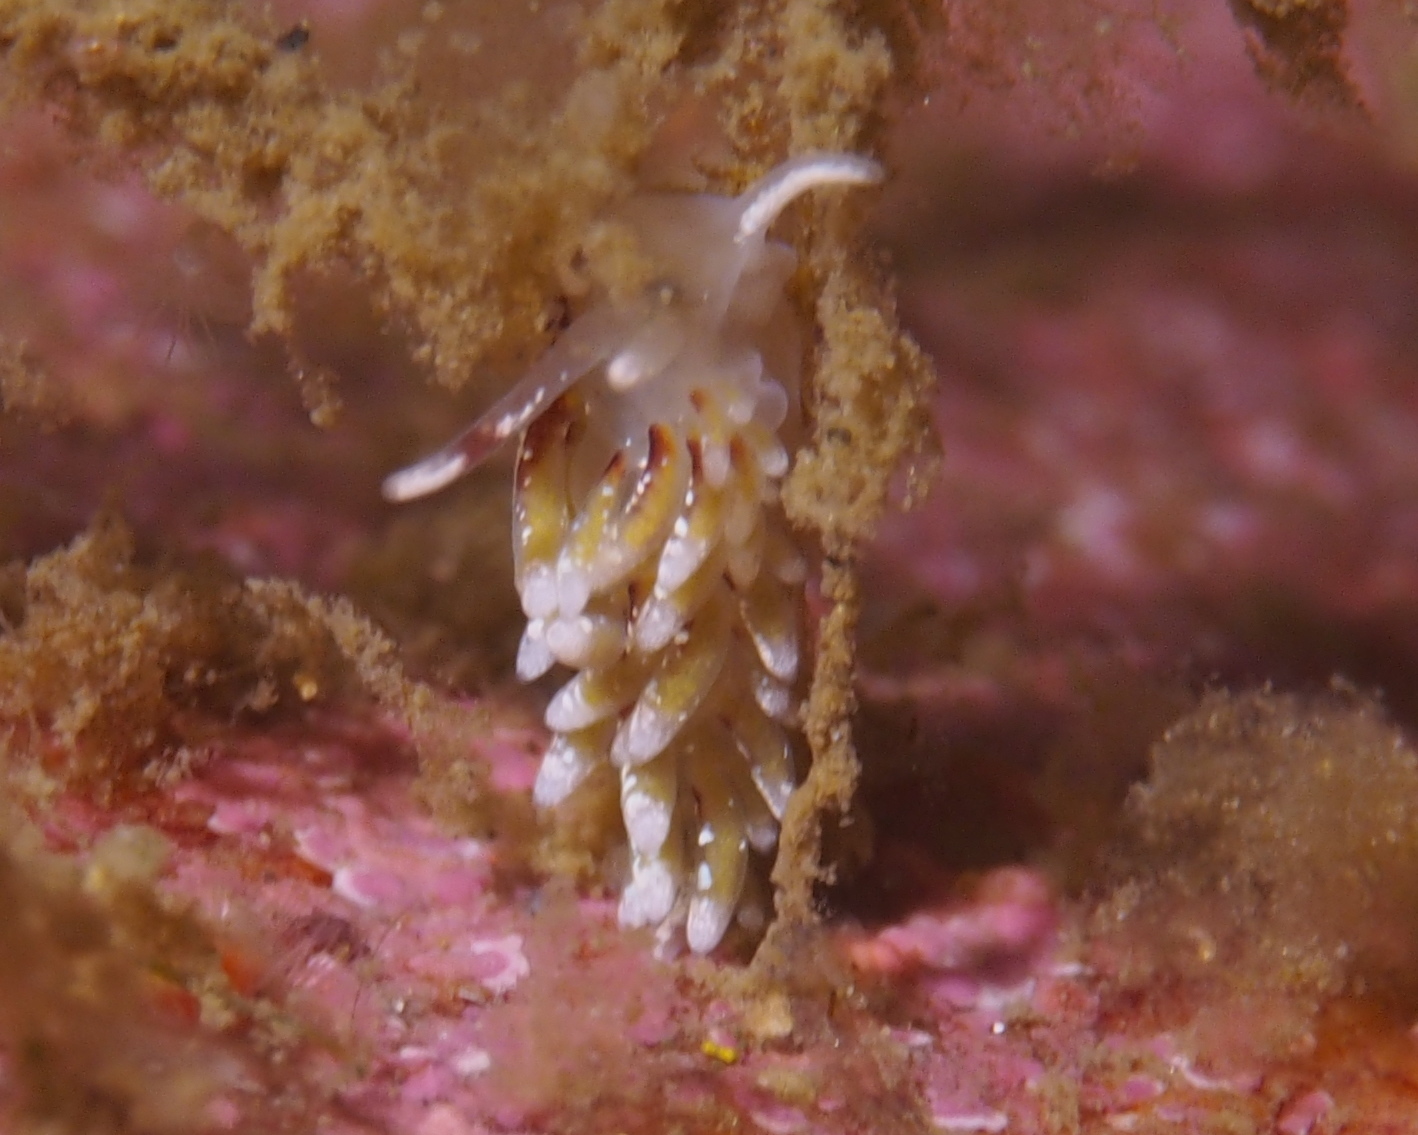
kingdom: Animalia
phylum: Mollusca
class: Gastropoda
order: Nudibranchia
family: Trinchesiidae
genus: Rubramoena
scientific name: Rubramoena rubescens
